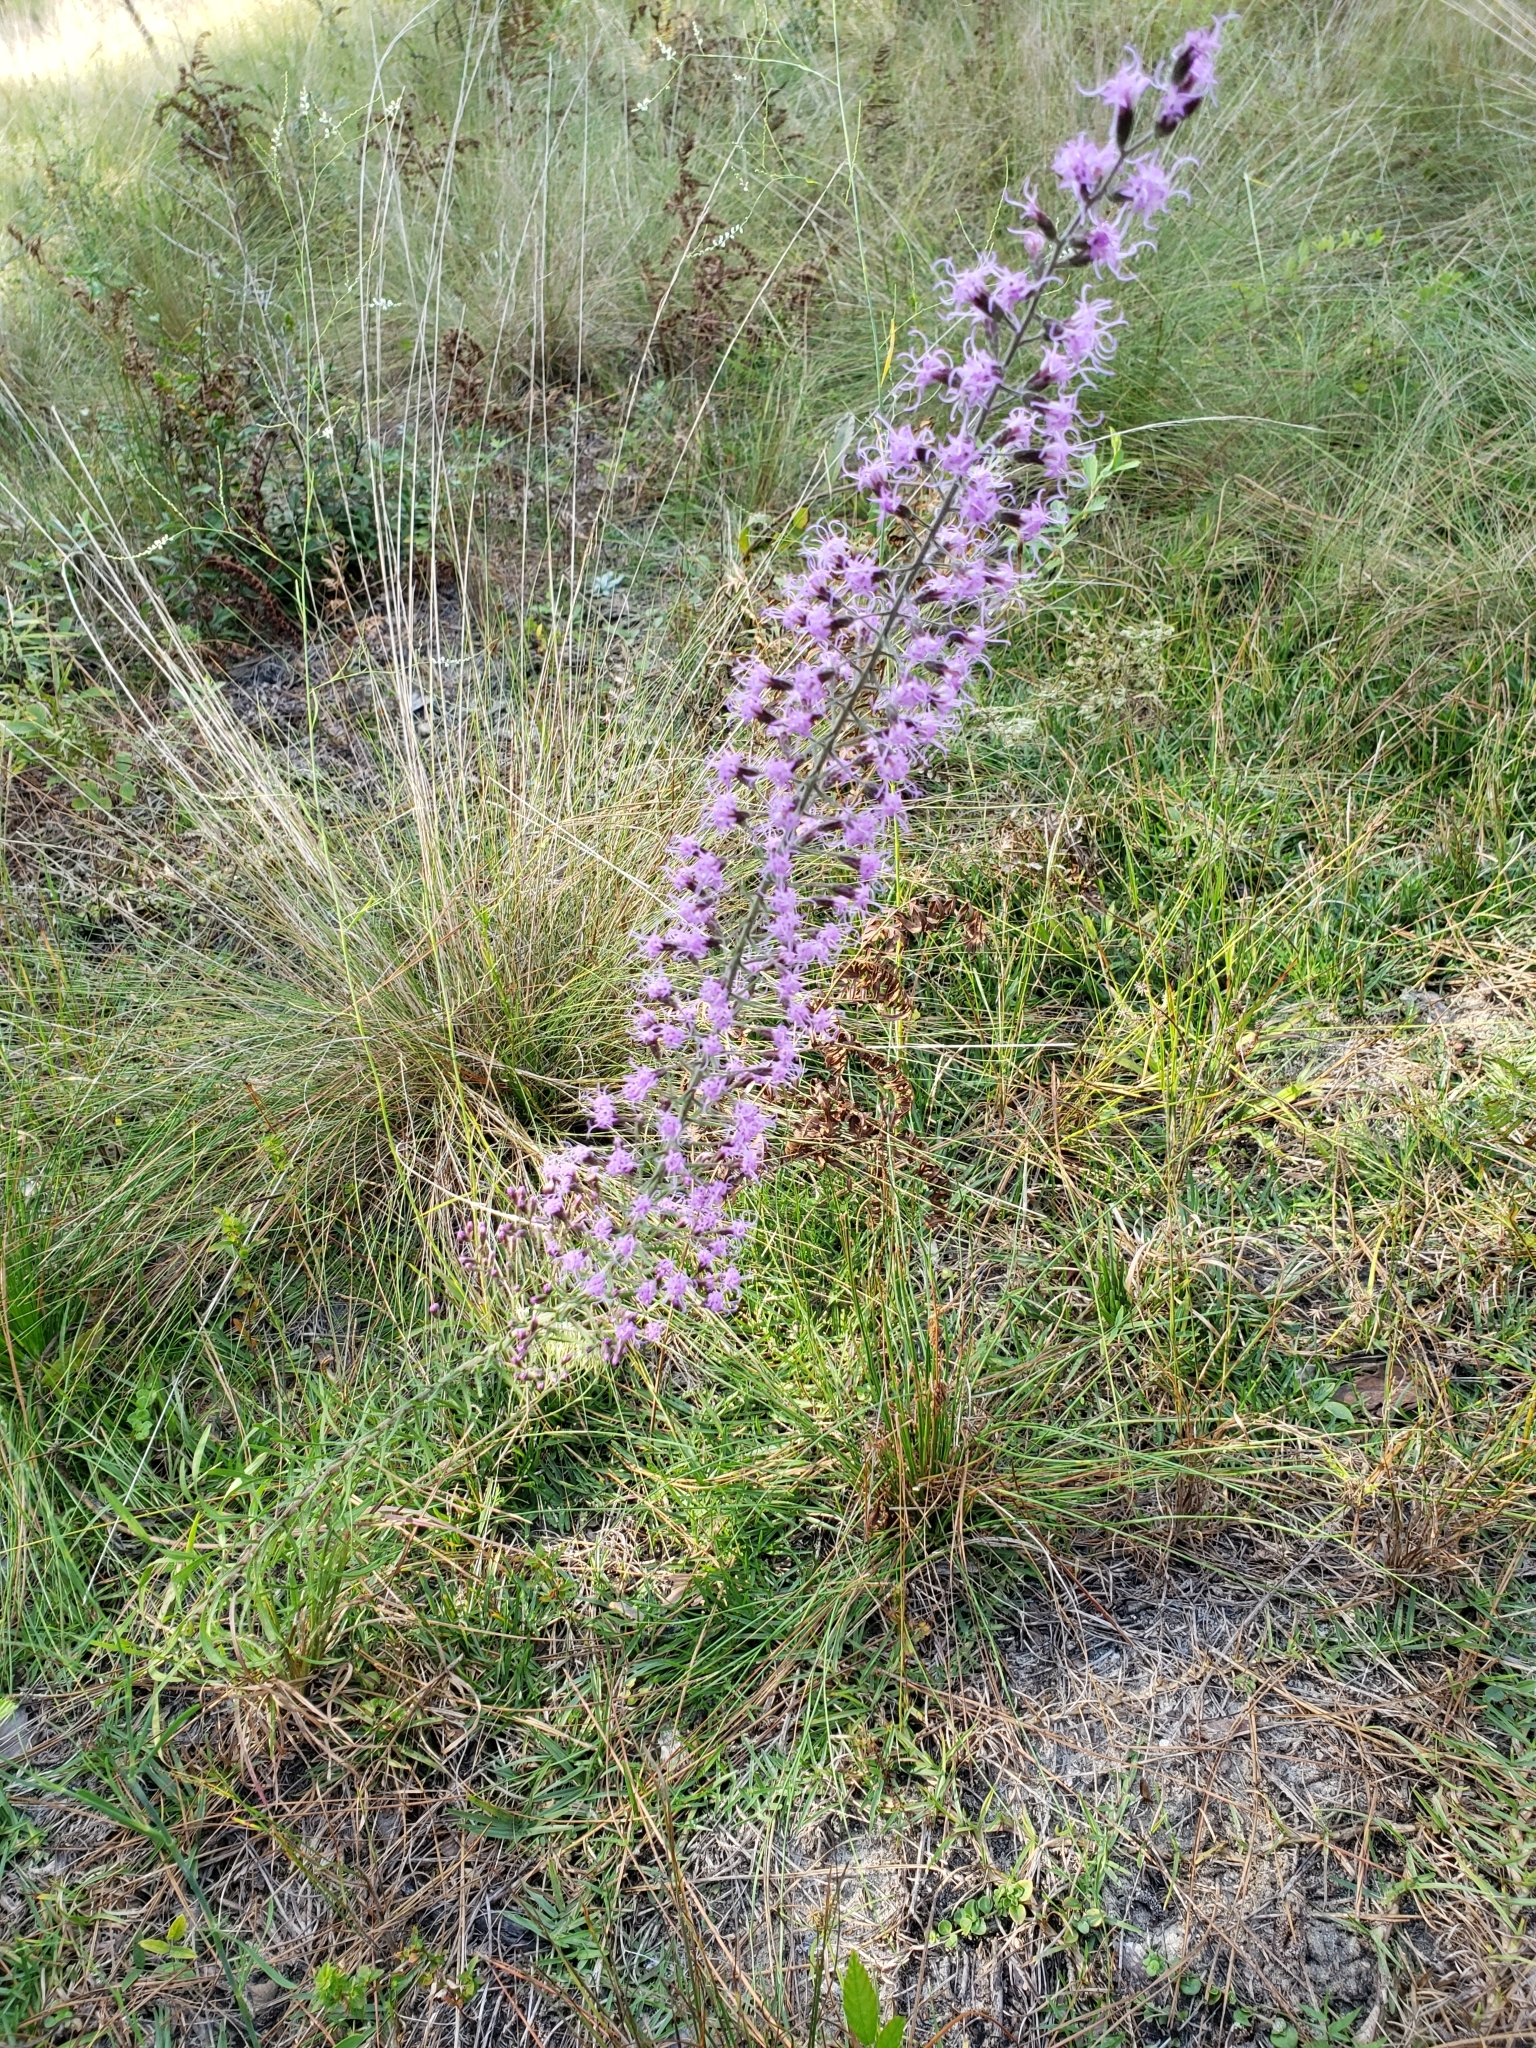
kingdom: Plantae
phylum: Tracheophyta
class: Magnoliopsida
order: Asterales
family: Asteraceae
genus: Liatris
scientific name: Liatris gracilis
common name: Slender gayfeather
